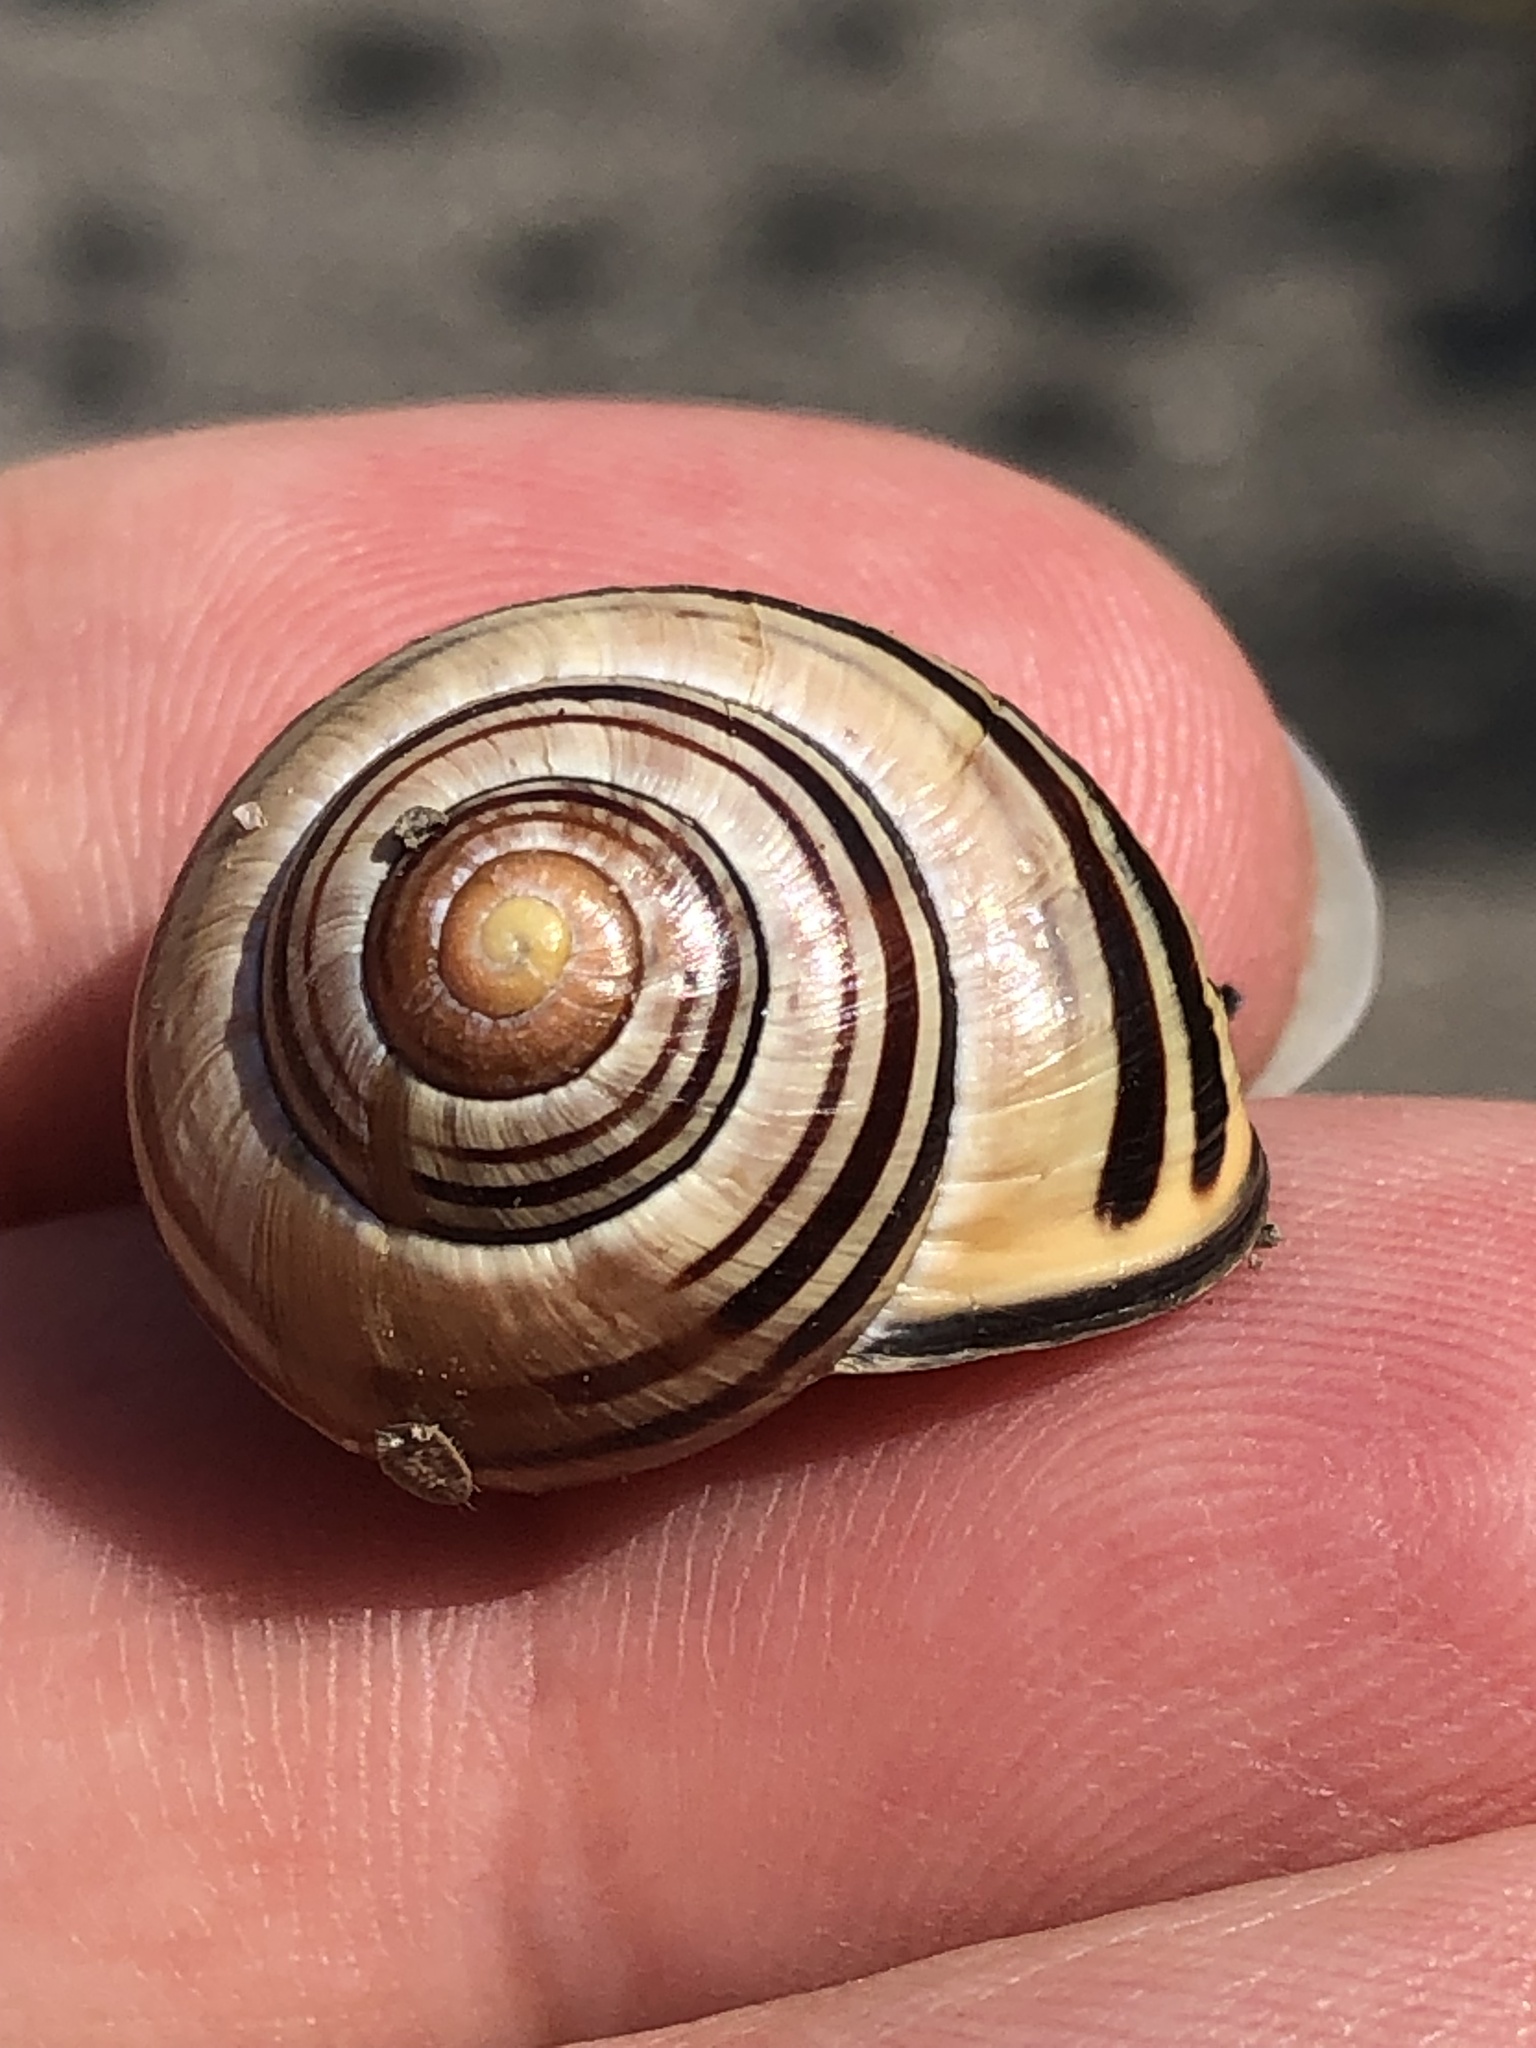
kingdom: Animalia
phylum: Mollusca
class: Gastropoda
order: Stylommatophora
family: Helicidae
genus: Cepaea
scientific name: Cepaea nemoralis
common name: Grovesnail
